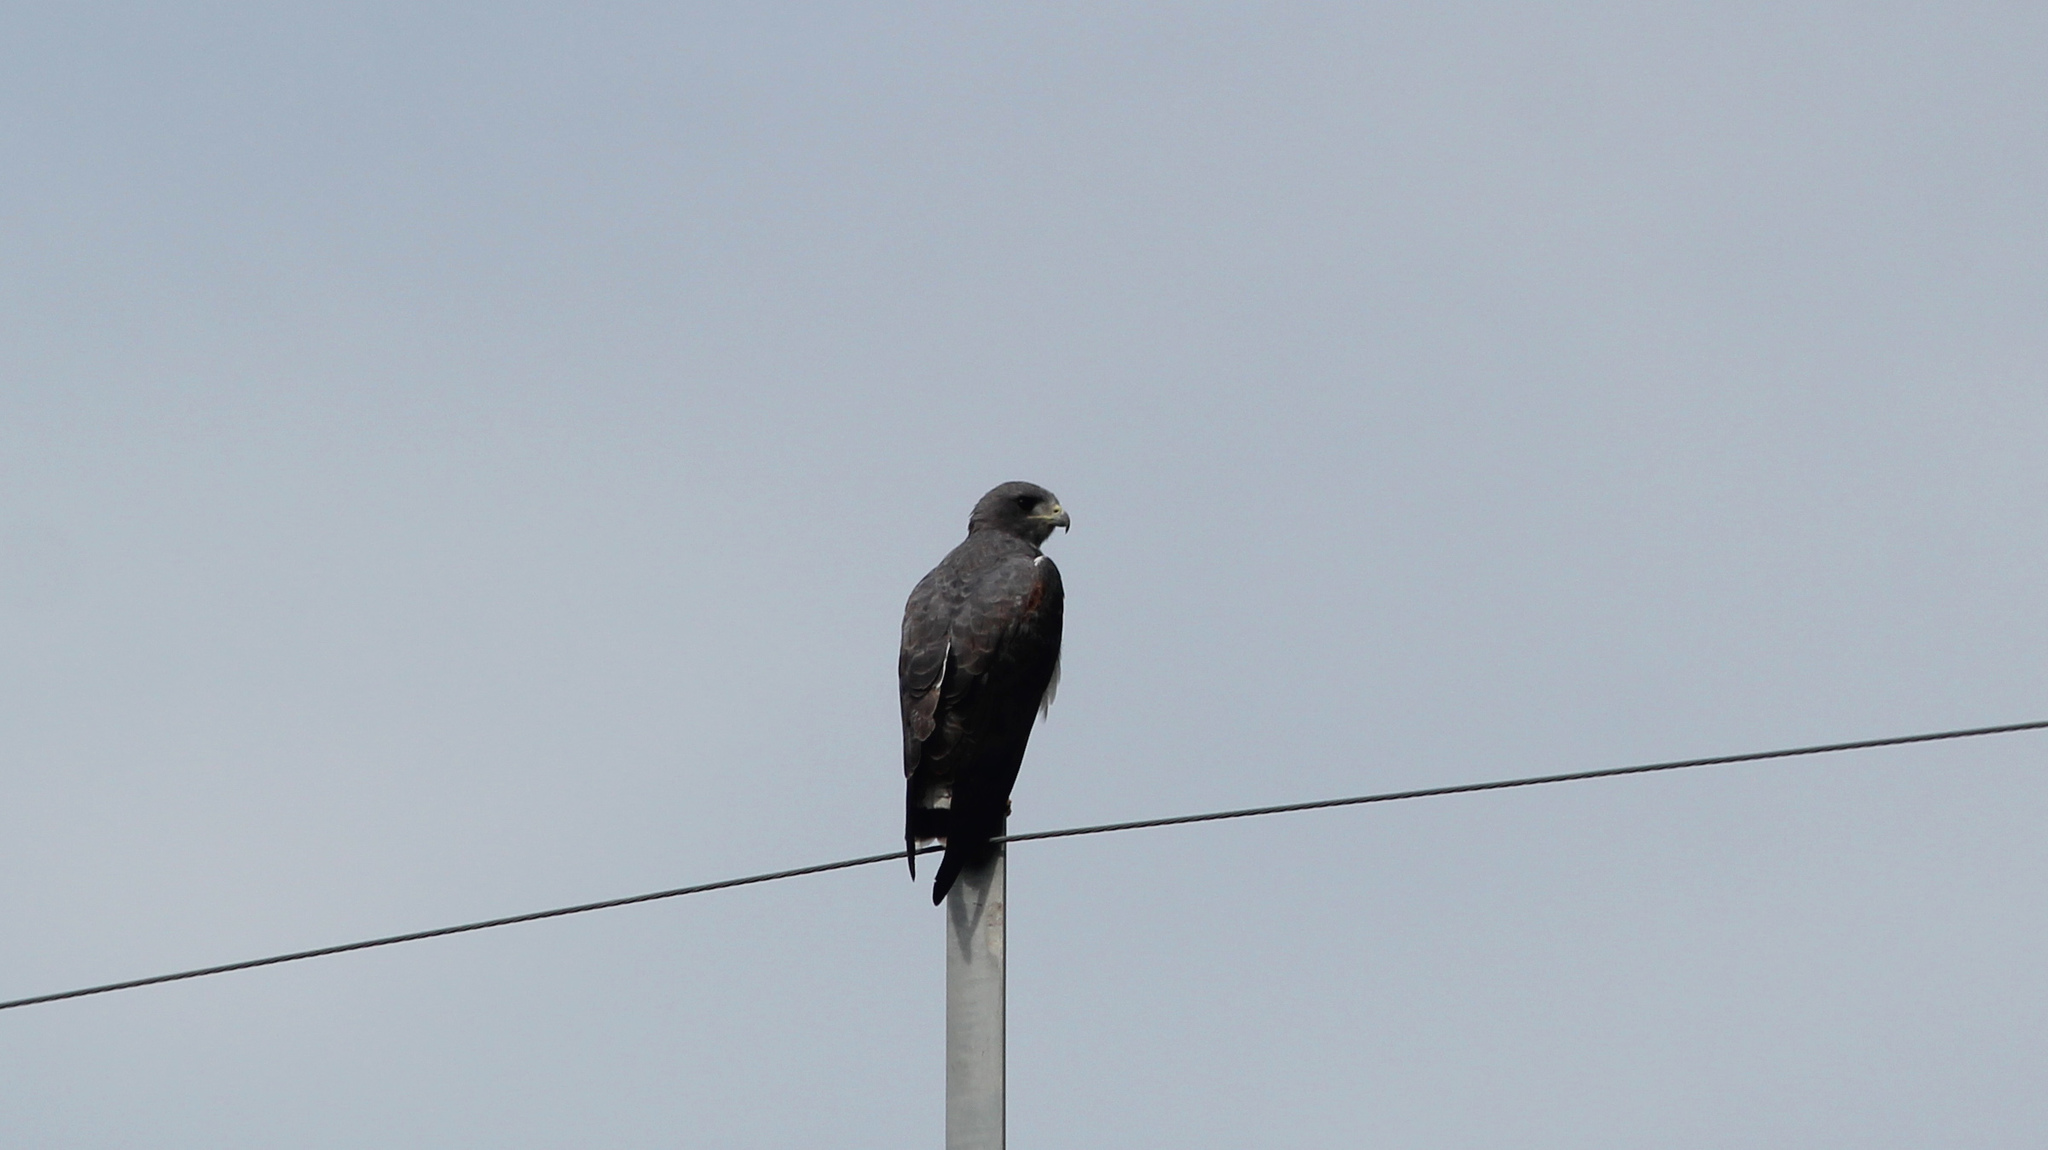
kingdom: Animalia
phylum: Chordata
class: Aves
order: Accipitriformes
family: Accipitridae
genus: Buteo
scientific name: Buteo albicaudatus
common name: White-tailed hawk
